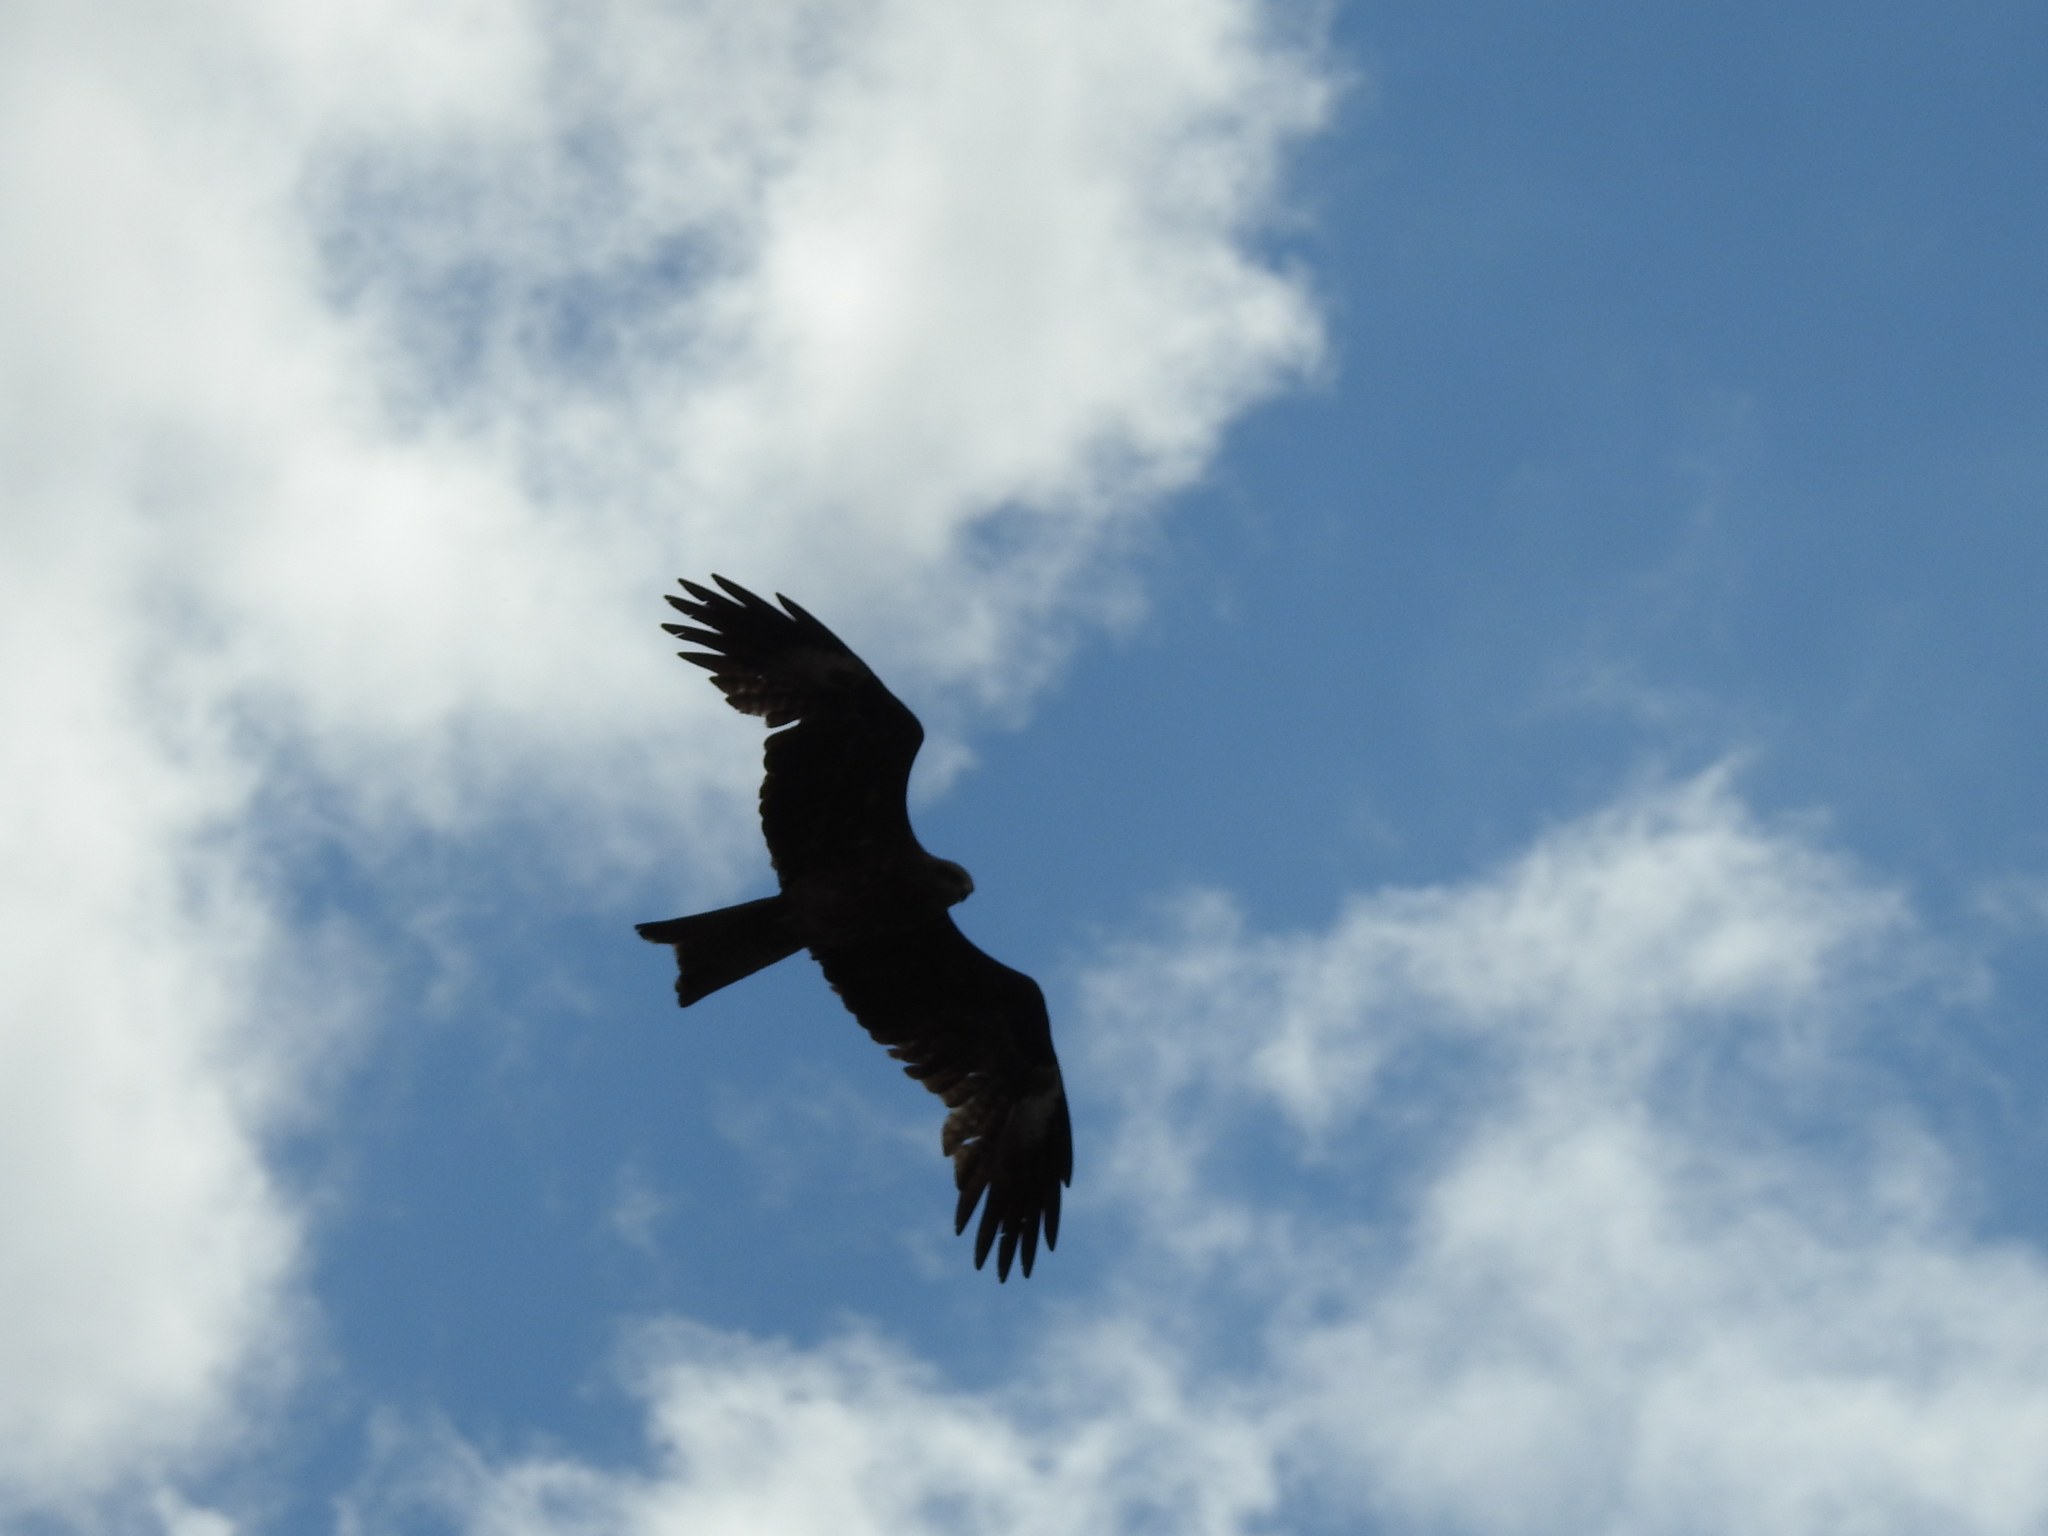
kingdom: Animalia
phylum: Chordata
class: Aves
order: Accipitriformes
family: Accipitridae
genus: Milvus
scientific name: Milvus migrans
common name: Black kite
